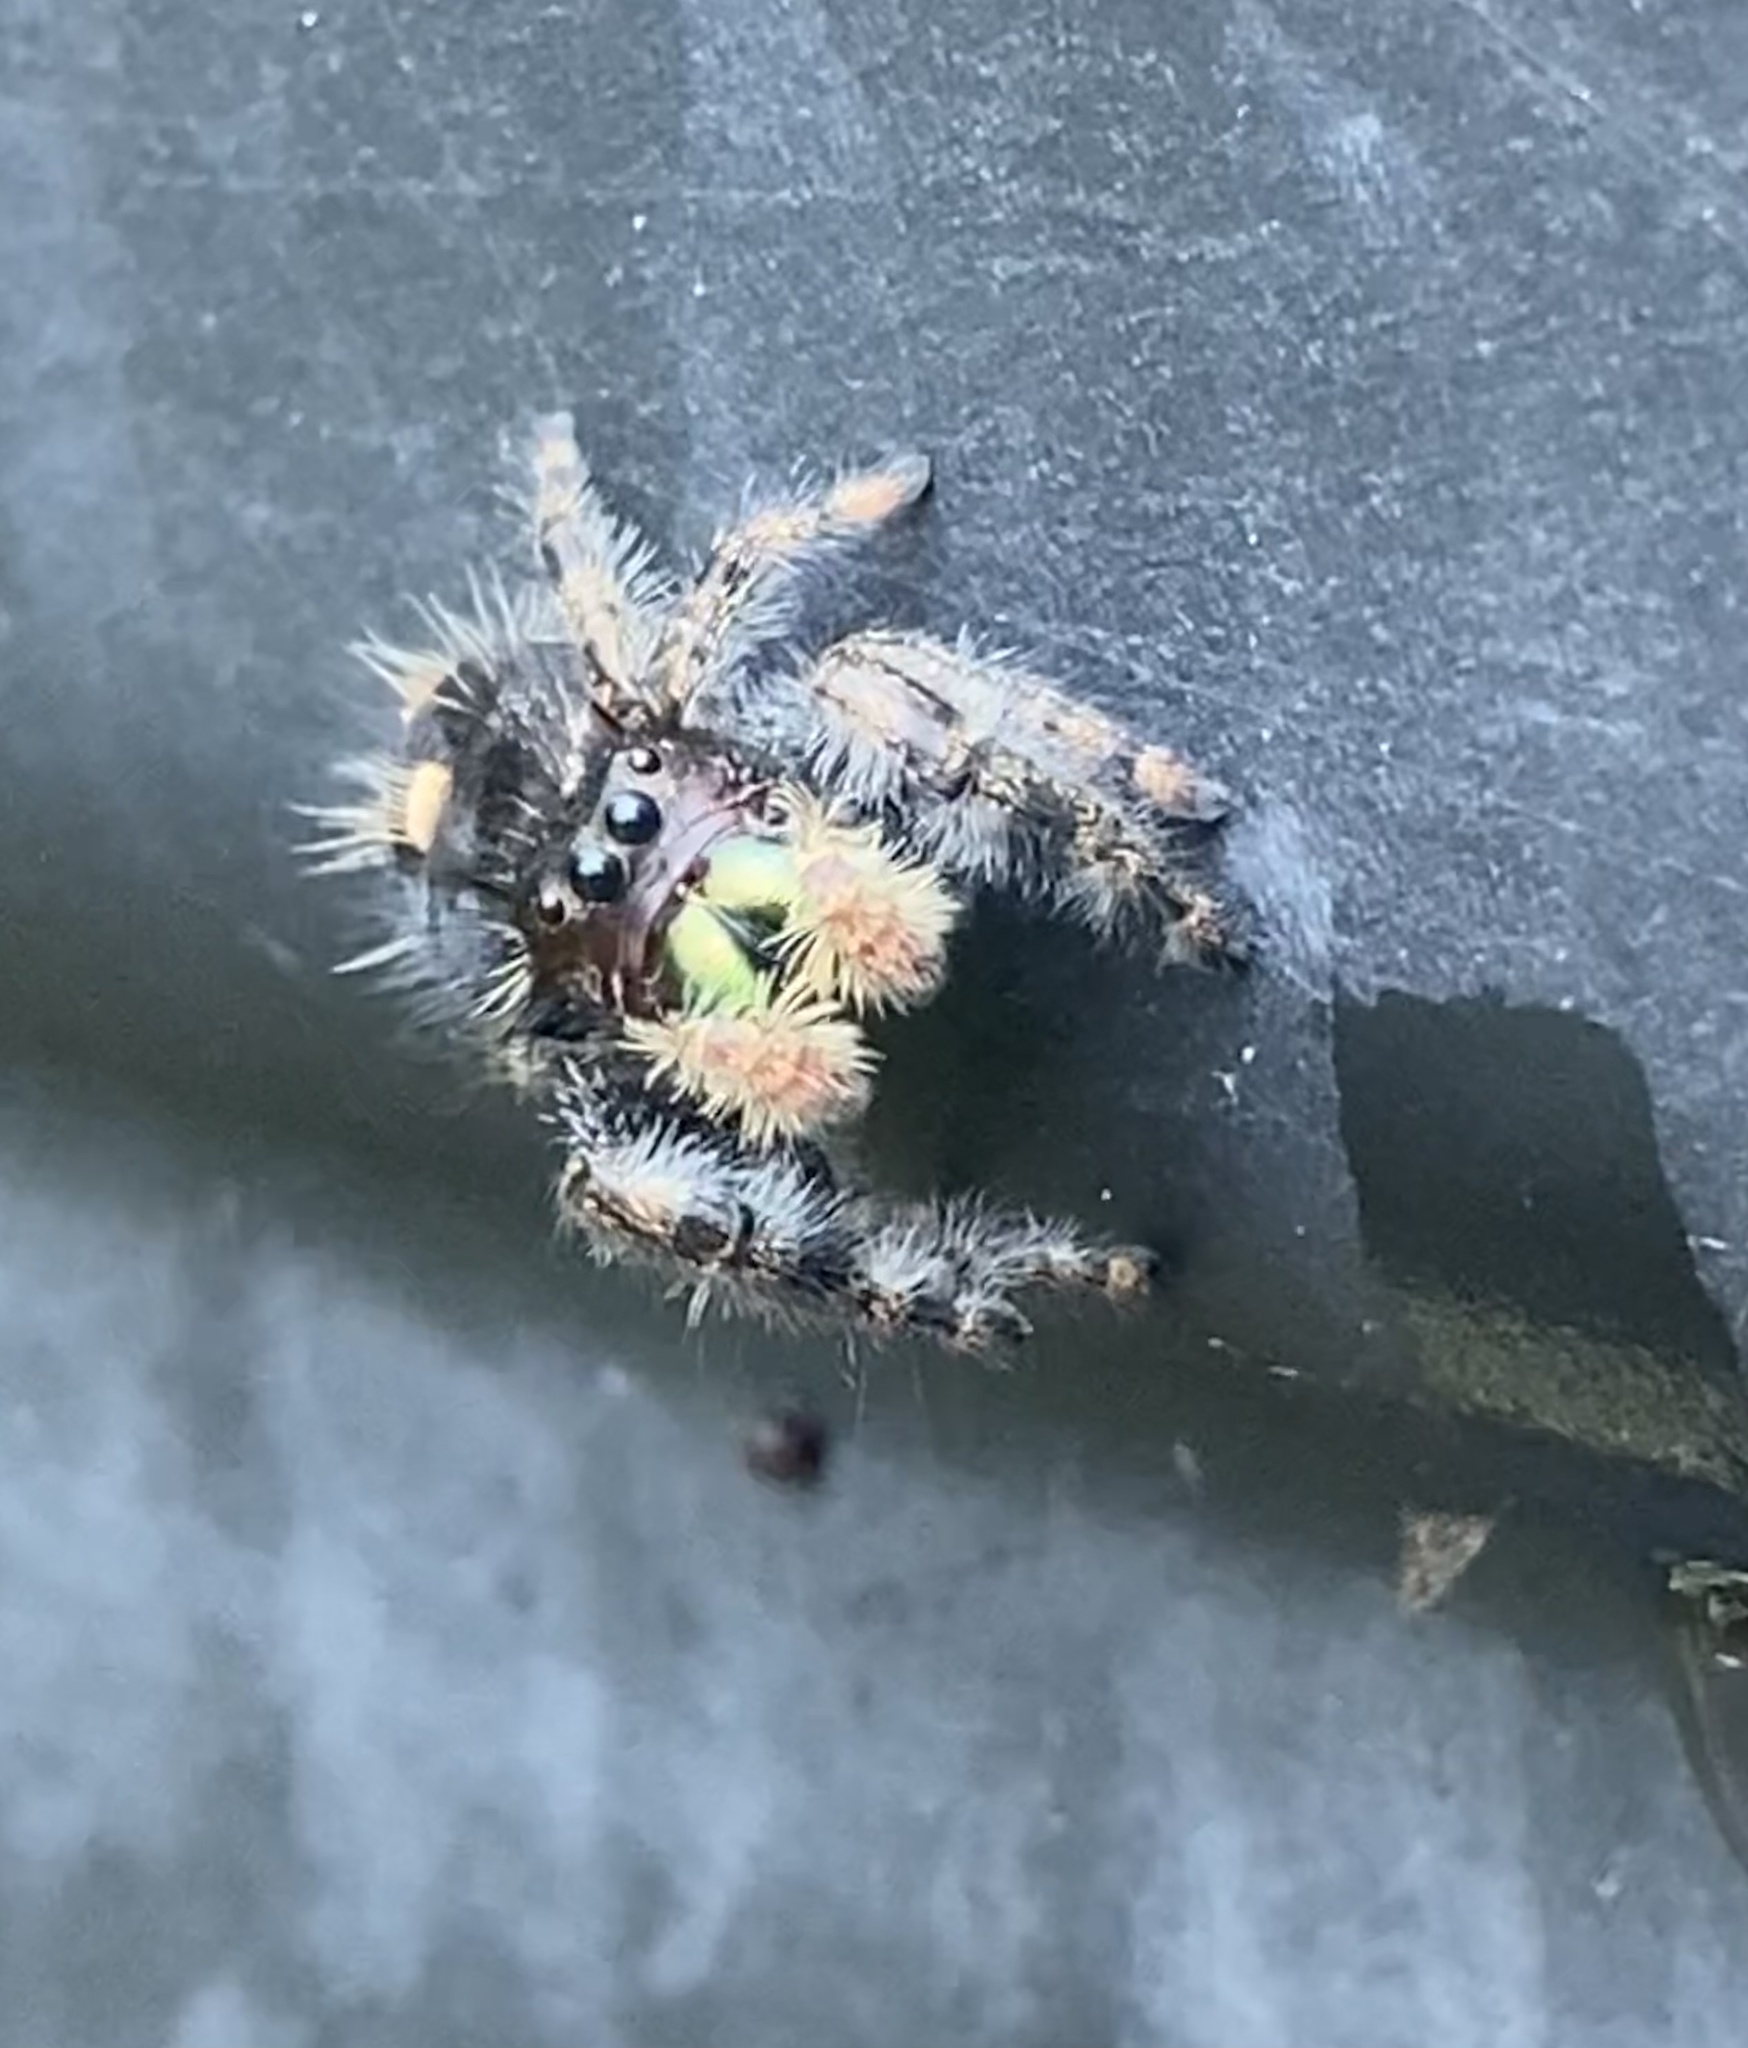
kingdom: Animalia
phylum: Arthropoda
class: Arachnida
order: Araneae
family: Salticidae
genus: Phidippus
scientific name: Phidippus audax
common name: Bold jumper
